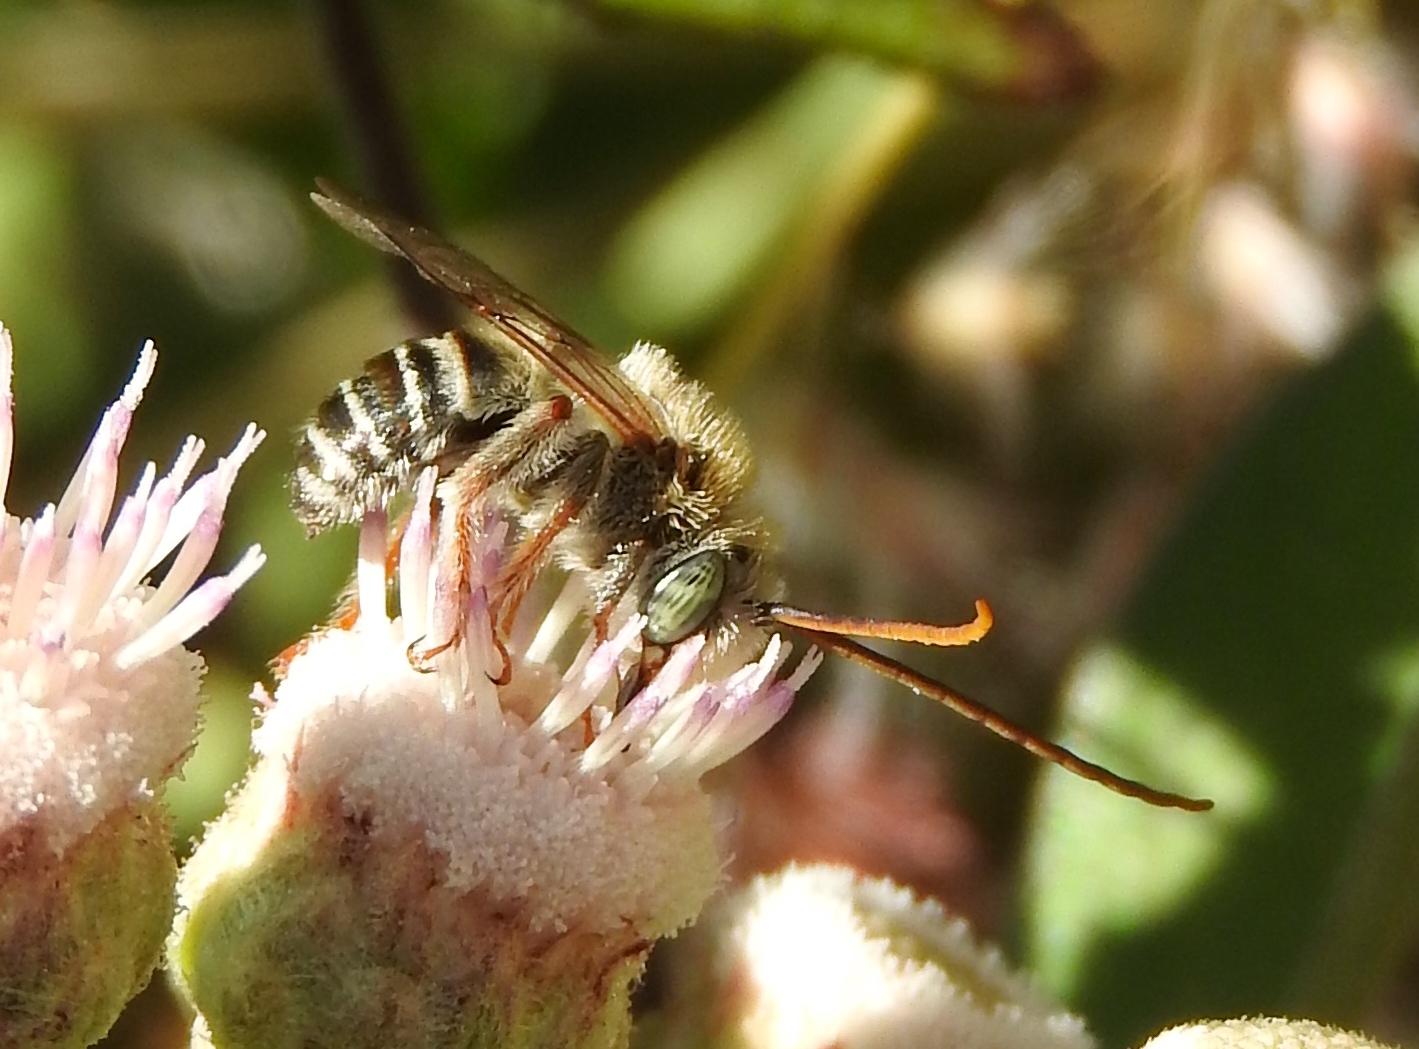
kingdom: Animalia
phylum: Arthropoda
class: Insecta
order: Hymenoptera
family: Apidae
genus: Melissodes
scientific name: Melissodes
